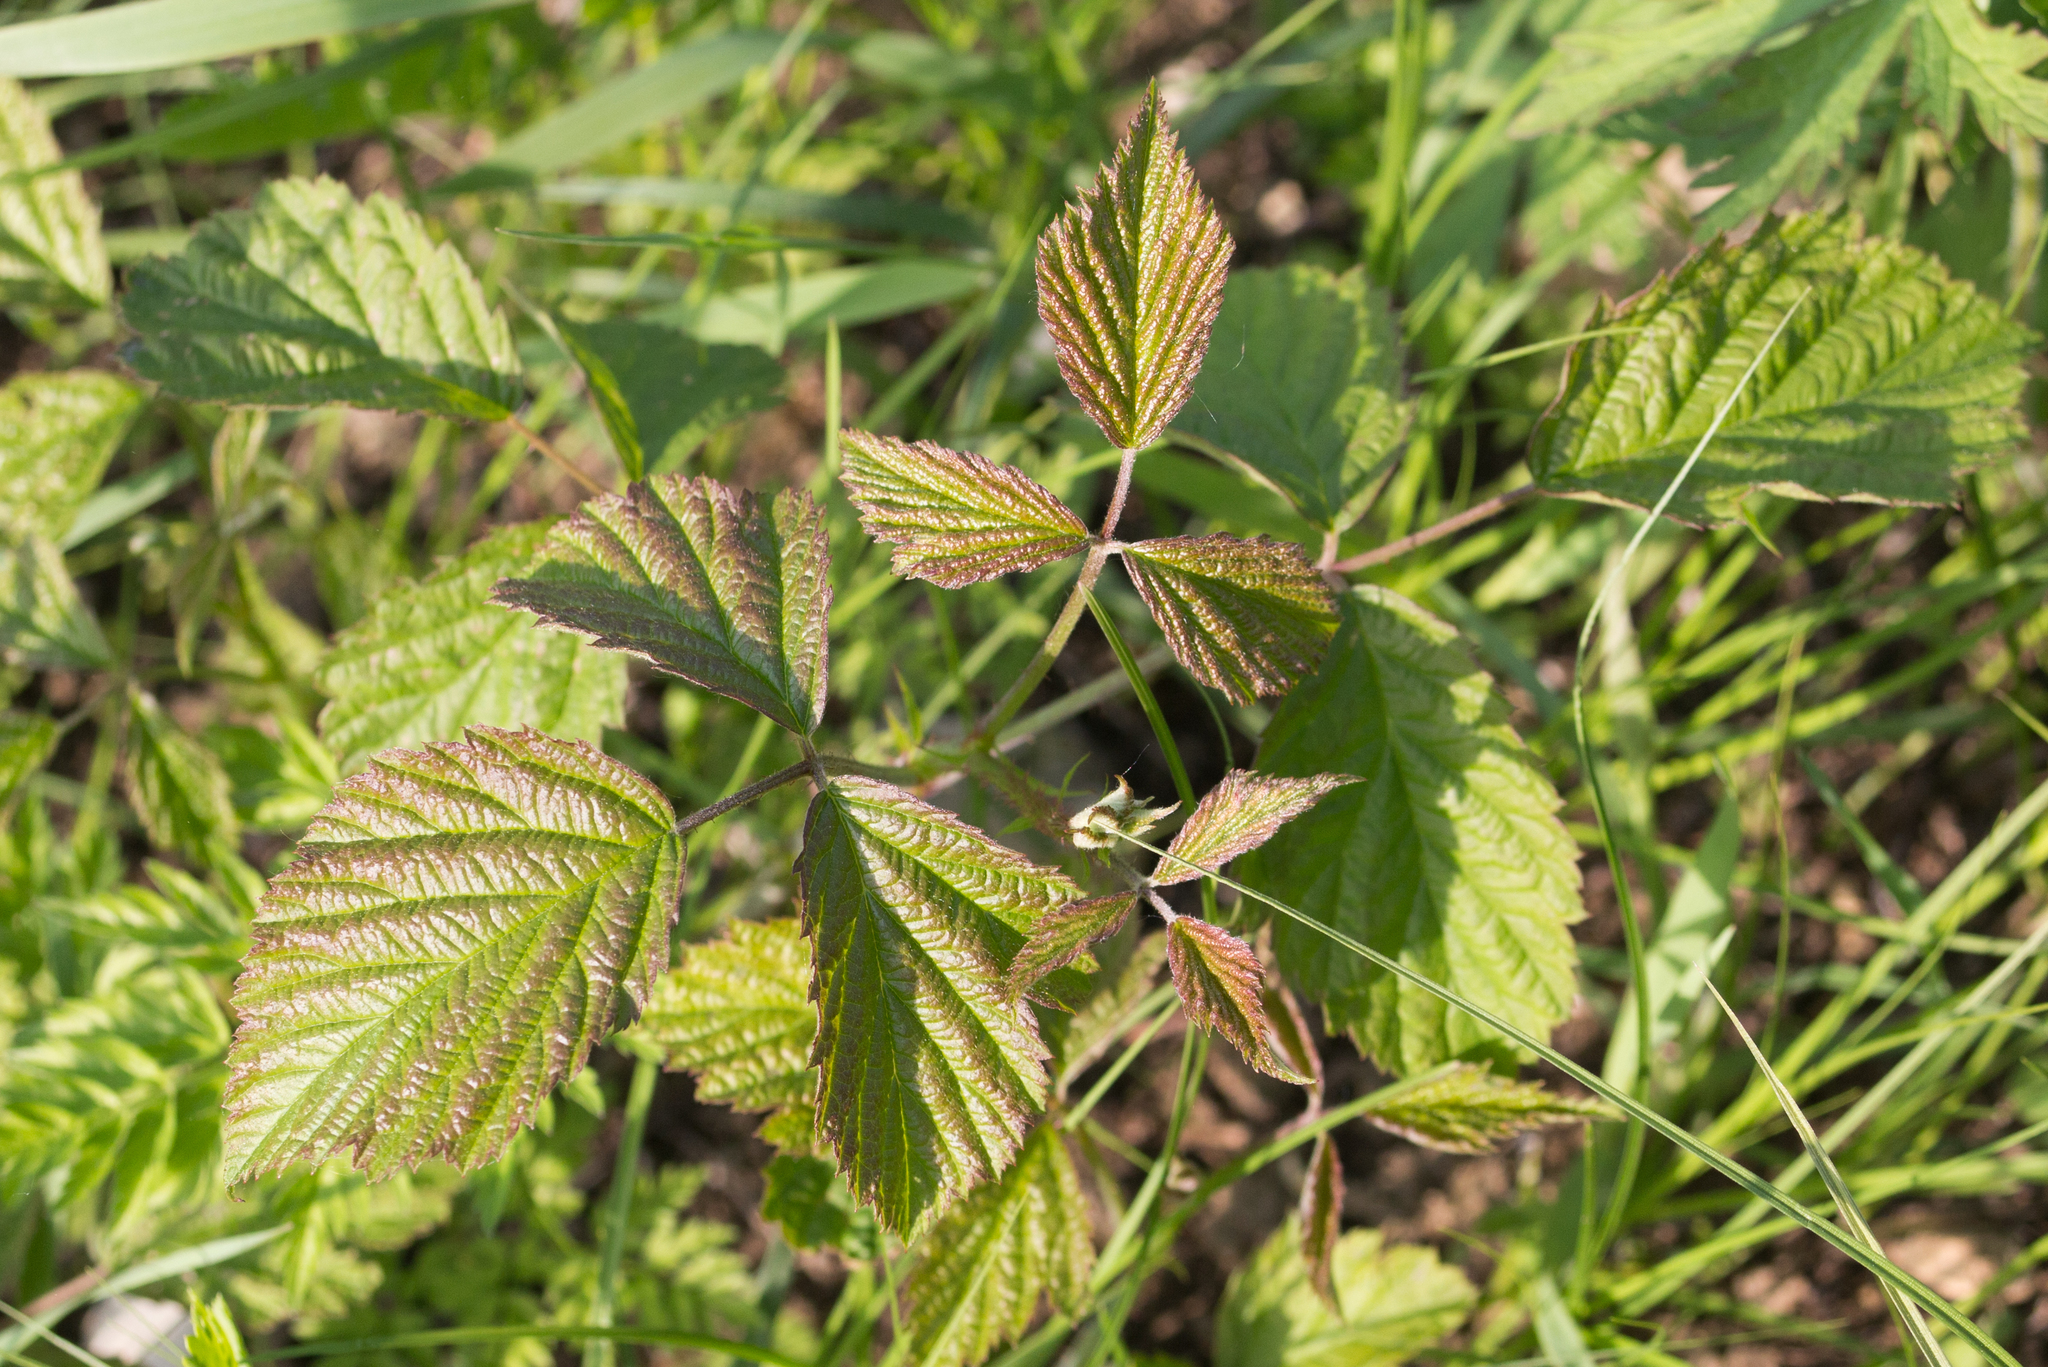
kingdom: Plantae
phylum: Tracheophyta
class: Magnoliopsida
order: Rosales
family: Rosaceae
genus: Rubus
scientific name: Rubus caesius
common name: Dewberry
